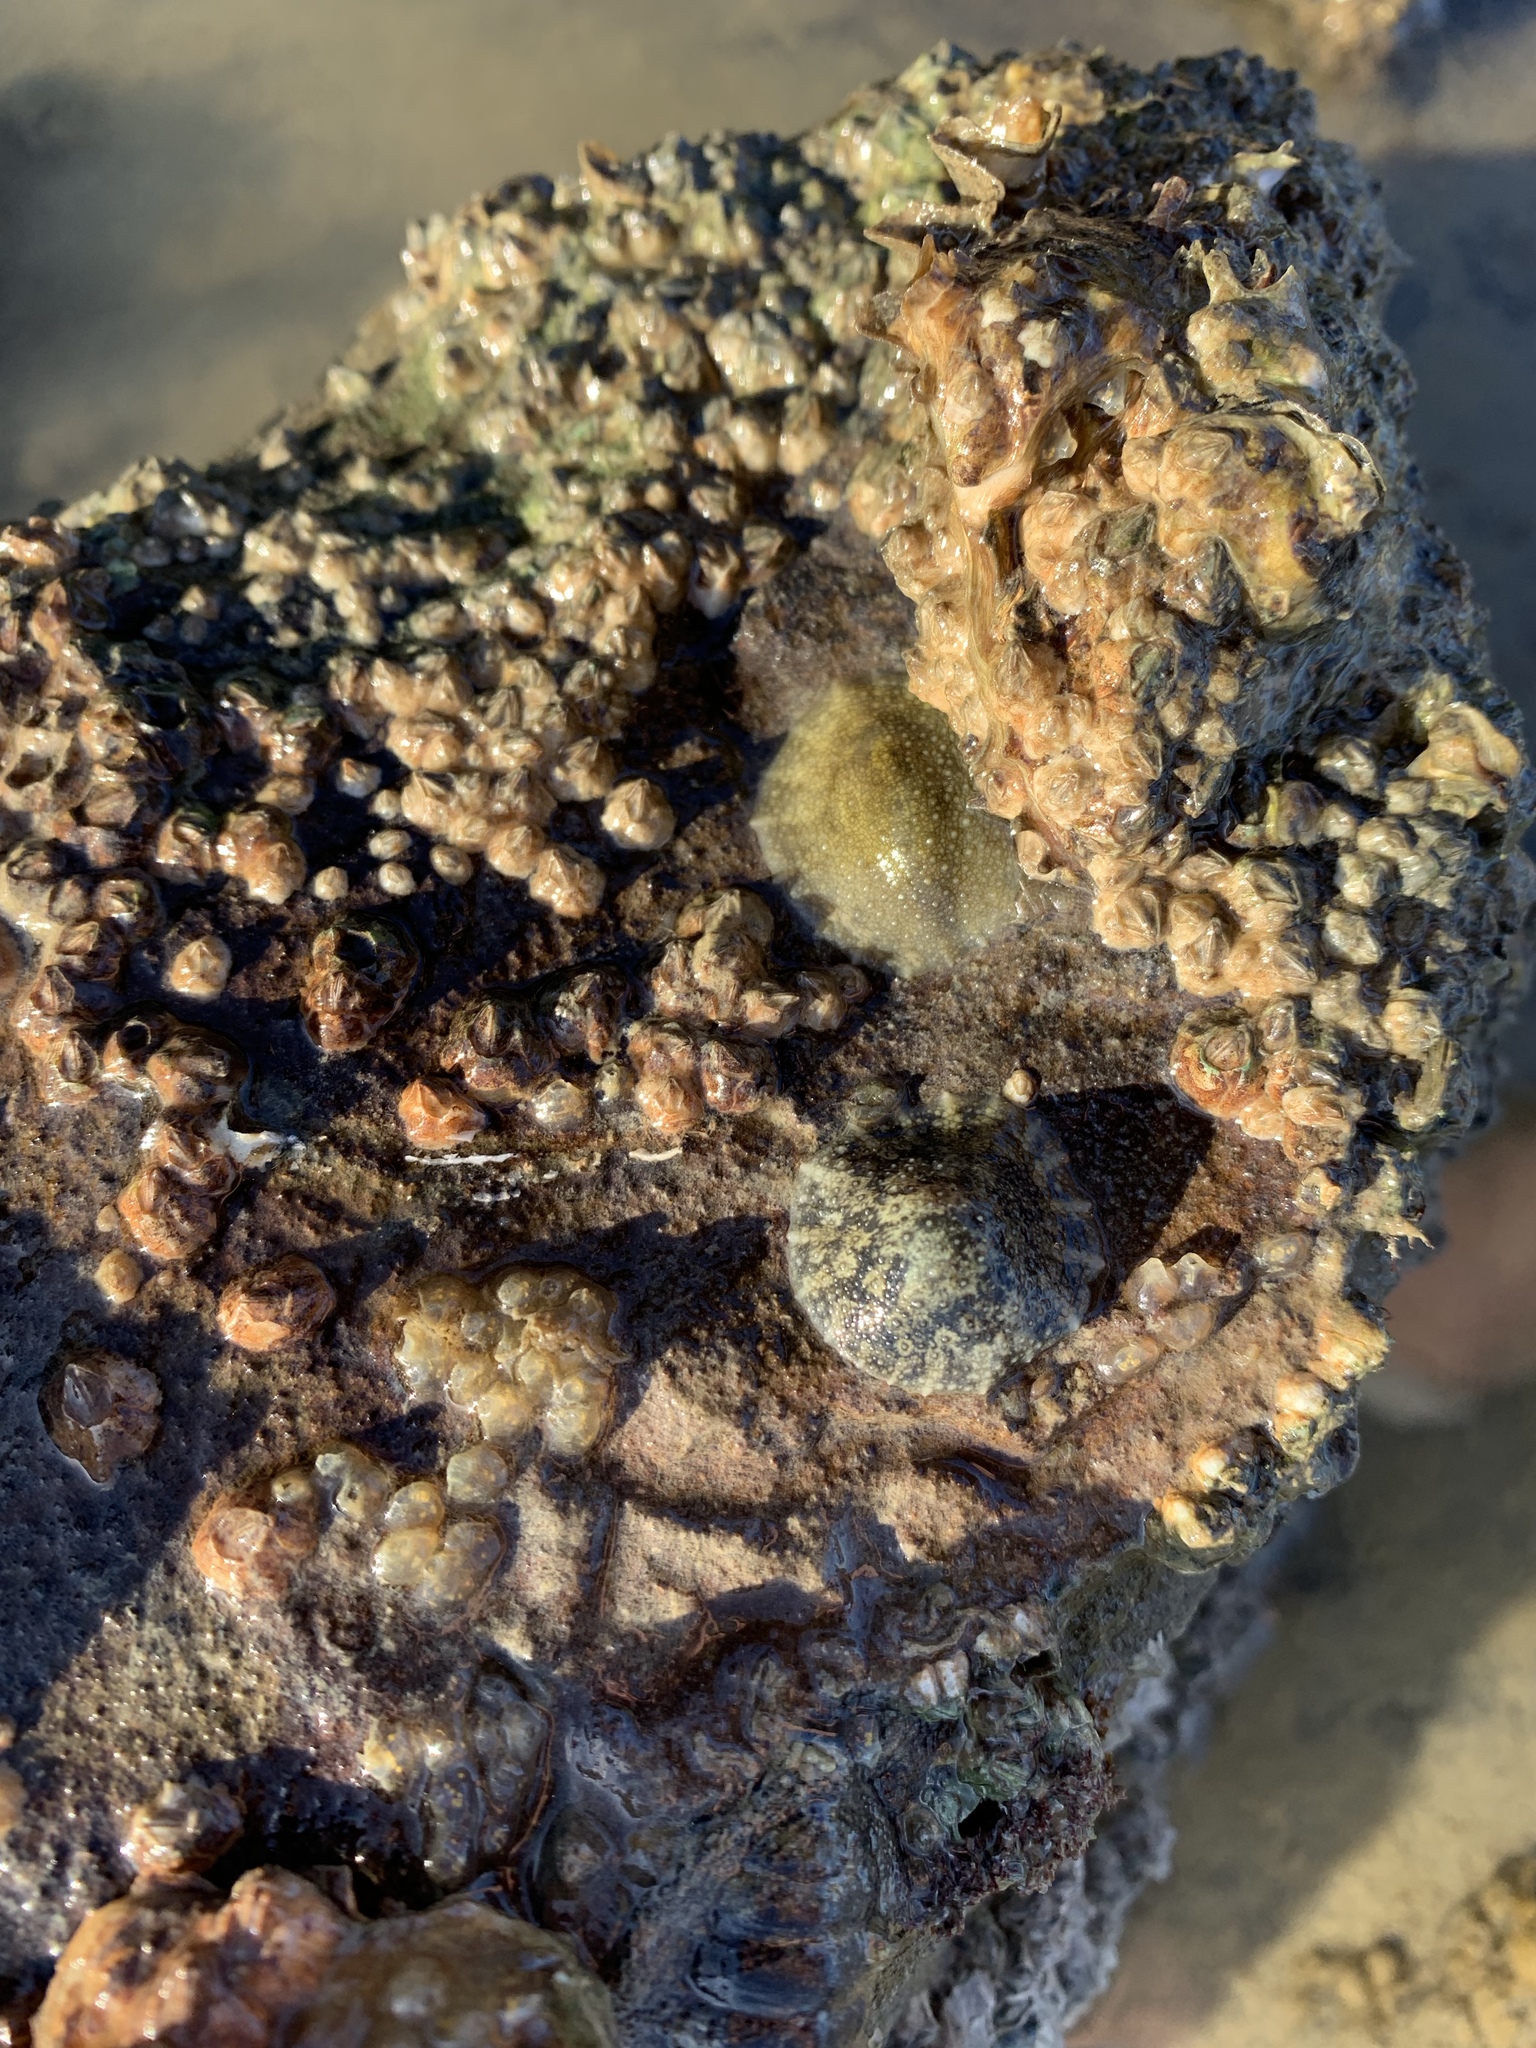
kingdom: Animalia
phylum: Mollusca
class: Gastropoda
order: Systellommatophora
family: Onchidiidae
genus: Onchidella
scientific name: Onchidella nigricans
